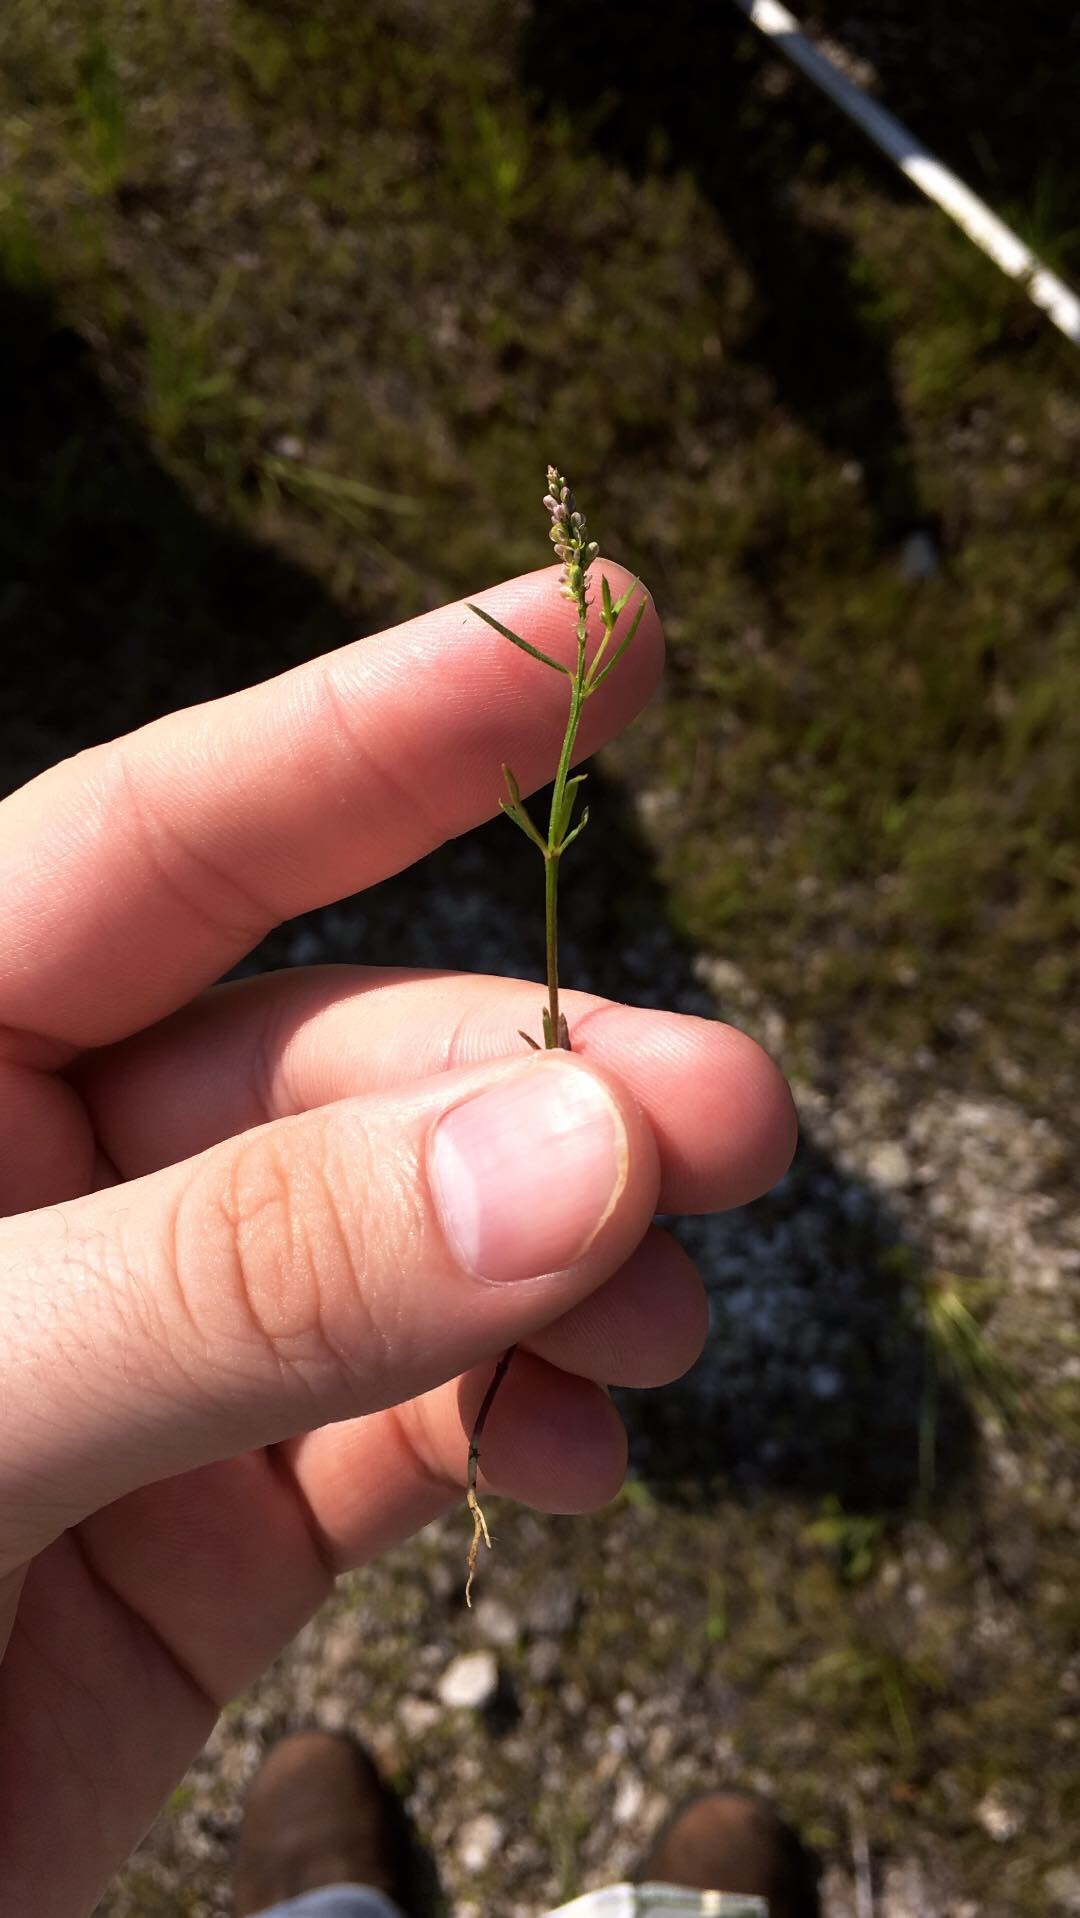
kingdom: Plantae
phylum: Tracheophyta
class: Magnoliopsida
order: Fabales
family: Polygalaceae
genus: Polygala
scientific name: Polygala verticillata
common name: Whorl milkwort
